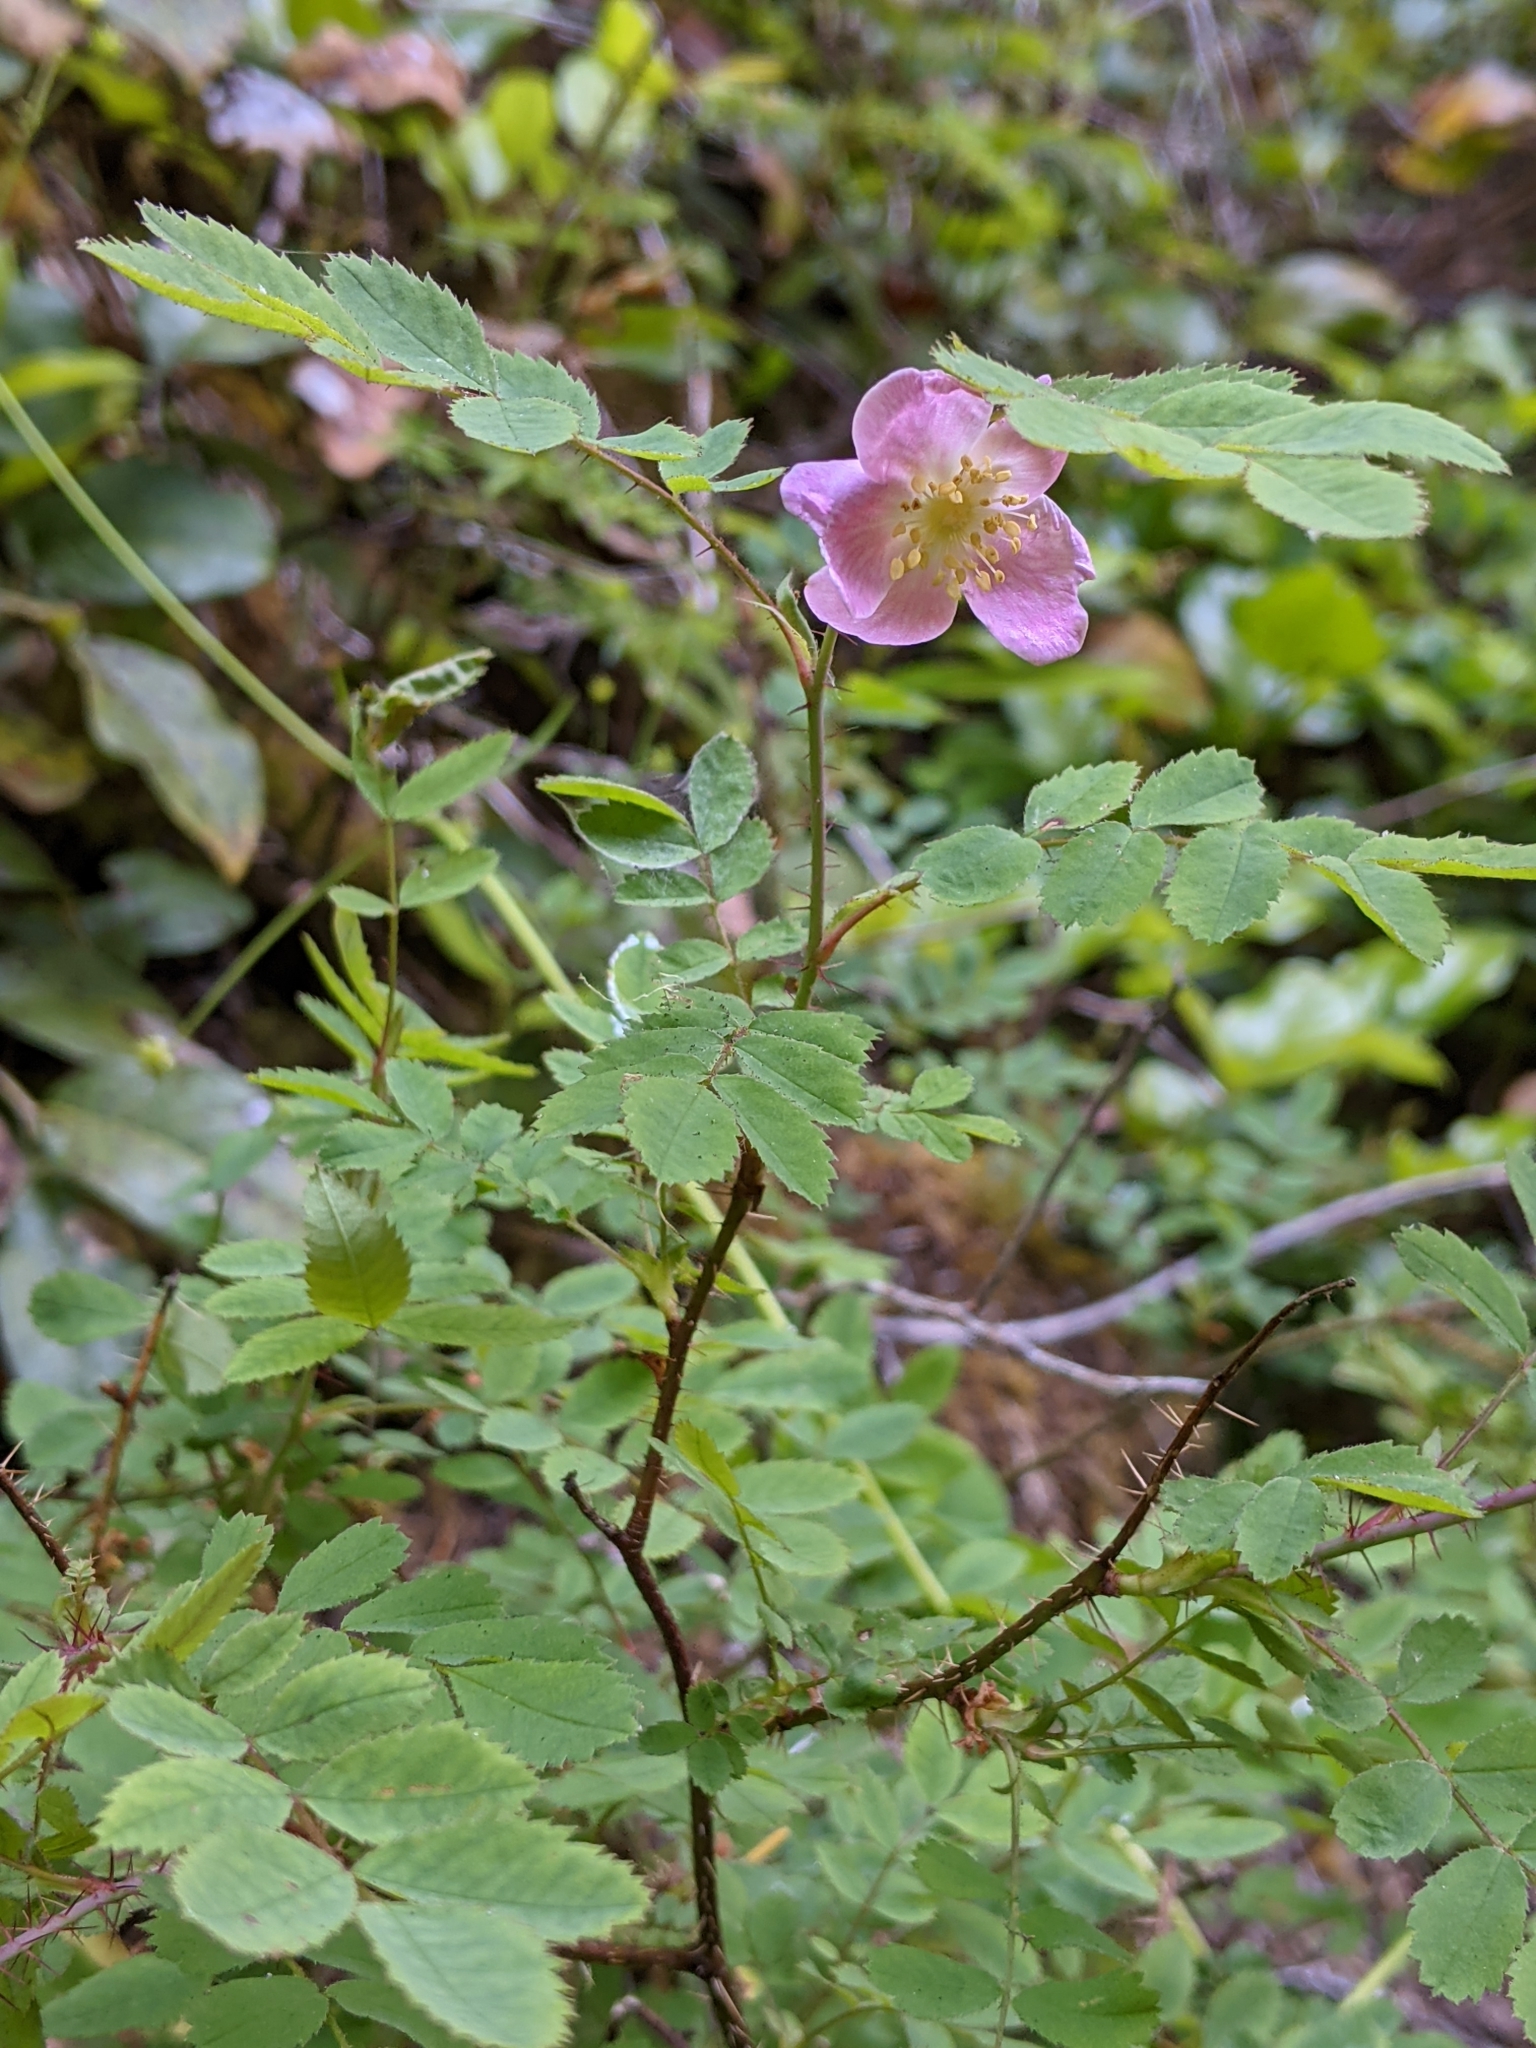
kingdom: Plantae
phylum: Tracheophyta
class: Magnoliopsida
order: Rosales
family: Rosaceae
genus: Rosa
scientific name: Rosa gymnocarpa
